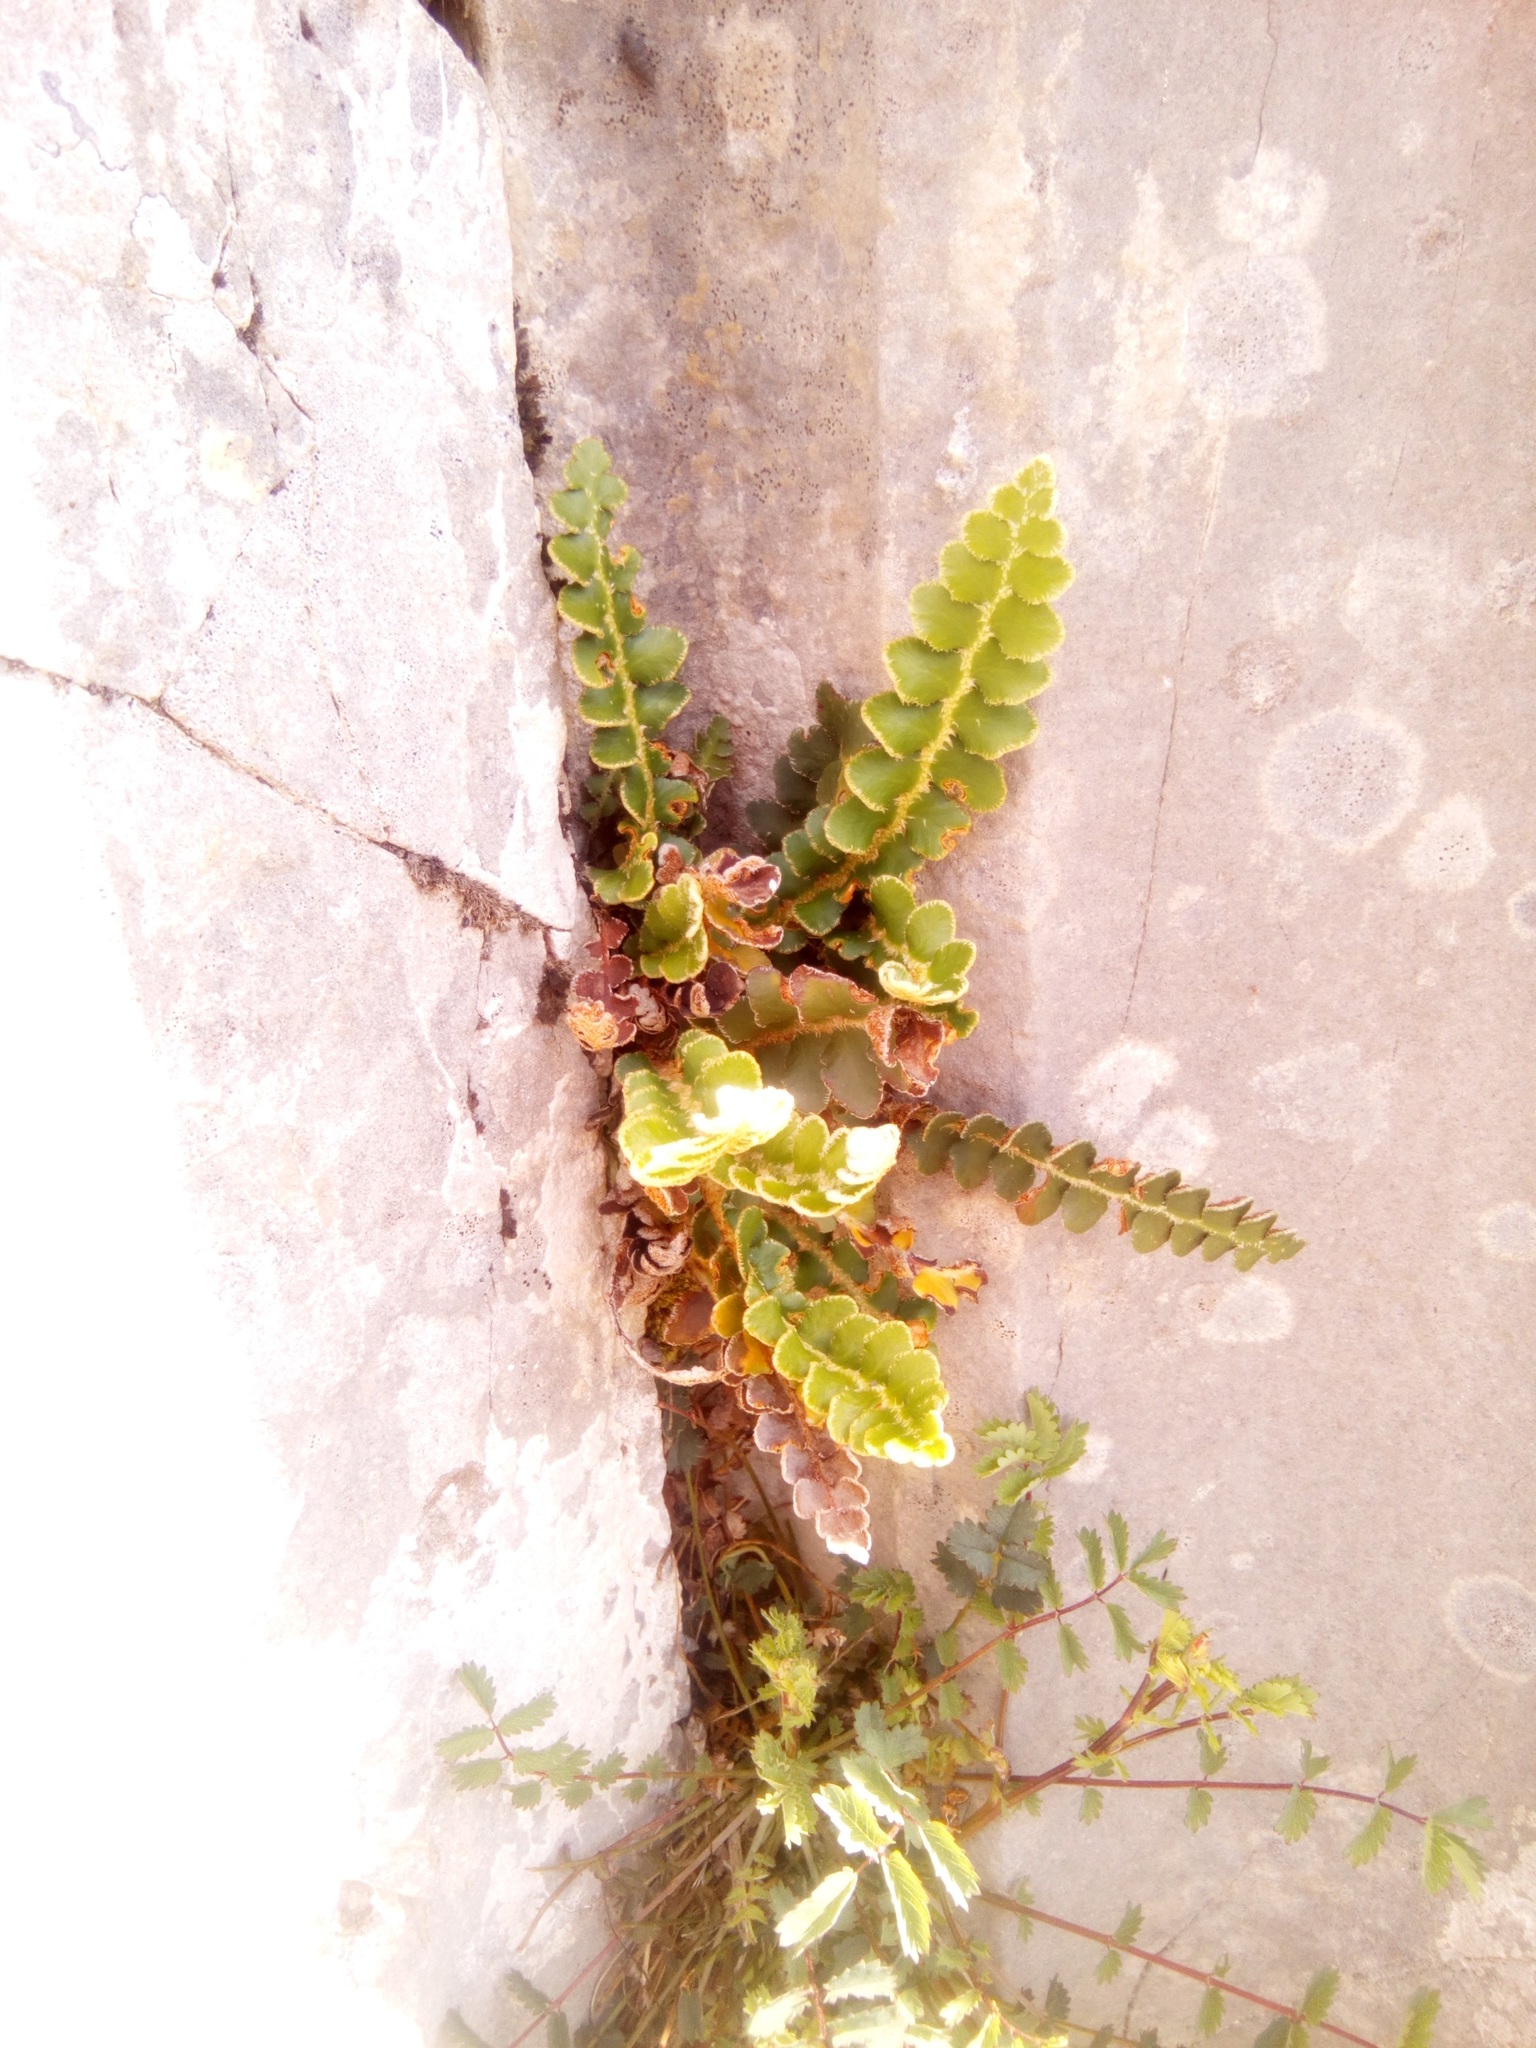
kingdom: Plantae
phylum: Tracheophyta
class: Polypodiopsida
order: Polypodiales
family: Aspleniaceae
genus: Asplenium
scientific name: Asplenium ceterach
